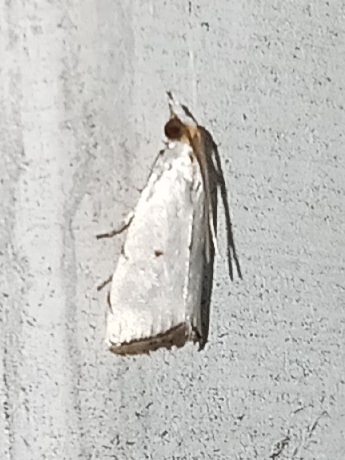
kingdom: Animalia
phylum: Arthropoda
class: Insecta
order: Lepidoptera
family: Crambidae
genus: Argyria
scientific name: Argyria pusillalis
